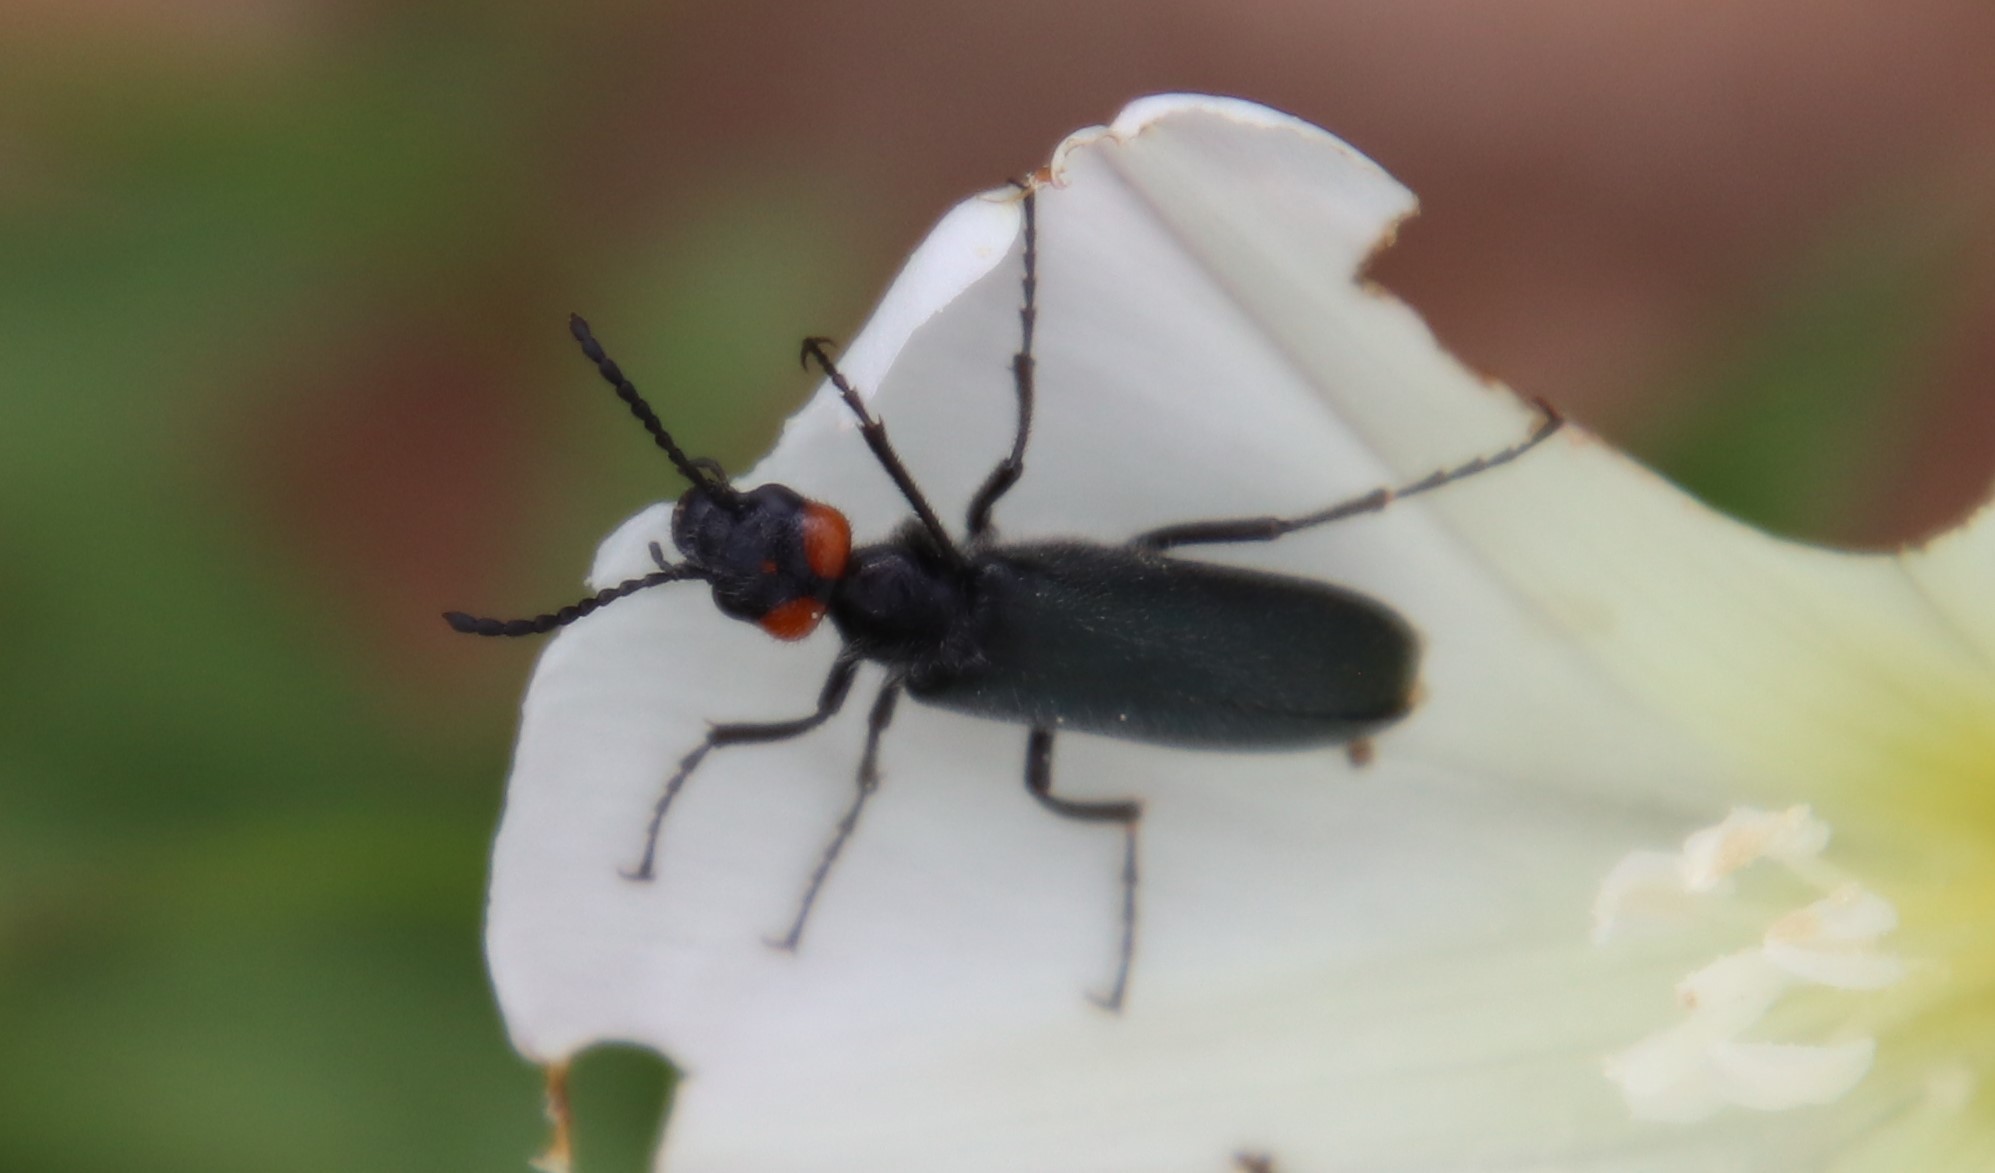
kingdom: Animalia
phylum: Arthropoda
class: Insecta
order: Coleoptera
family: Meloidae
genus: Lytta
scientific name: Lytta auriculata
